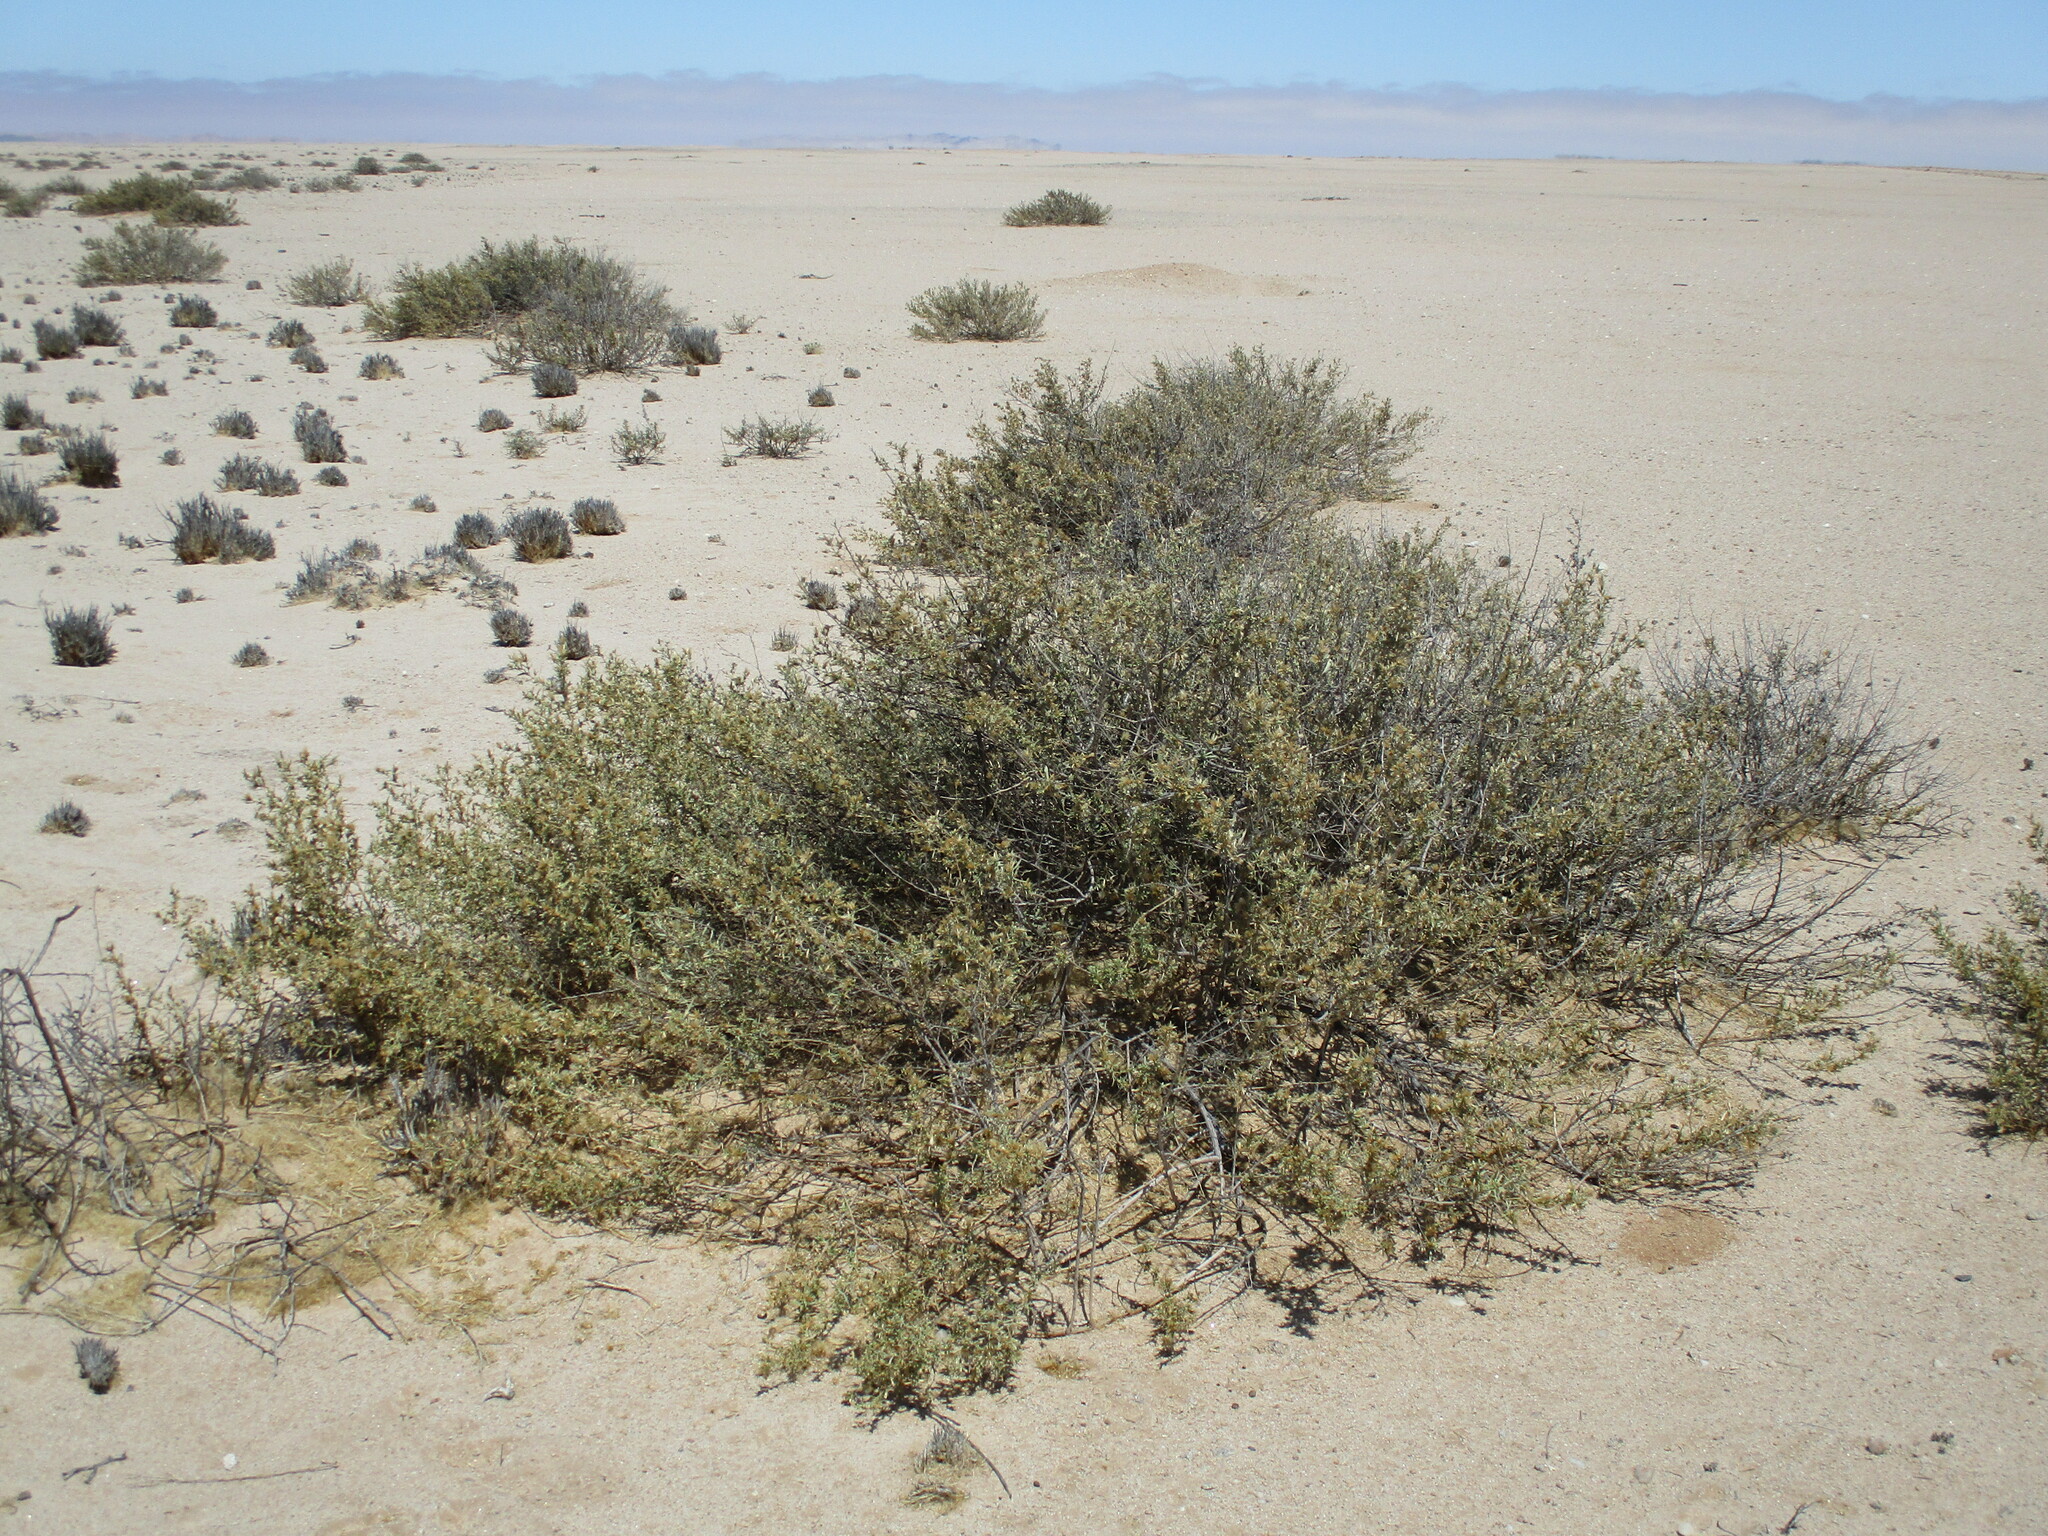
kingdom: Plantae
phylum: Tracheophyta
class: Magnoliopsida
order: Asterales
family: Asteraceae
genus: Pechuel-loeschea
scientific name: Pechuel-loeschea leubnitziae
